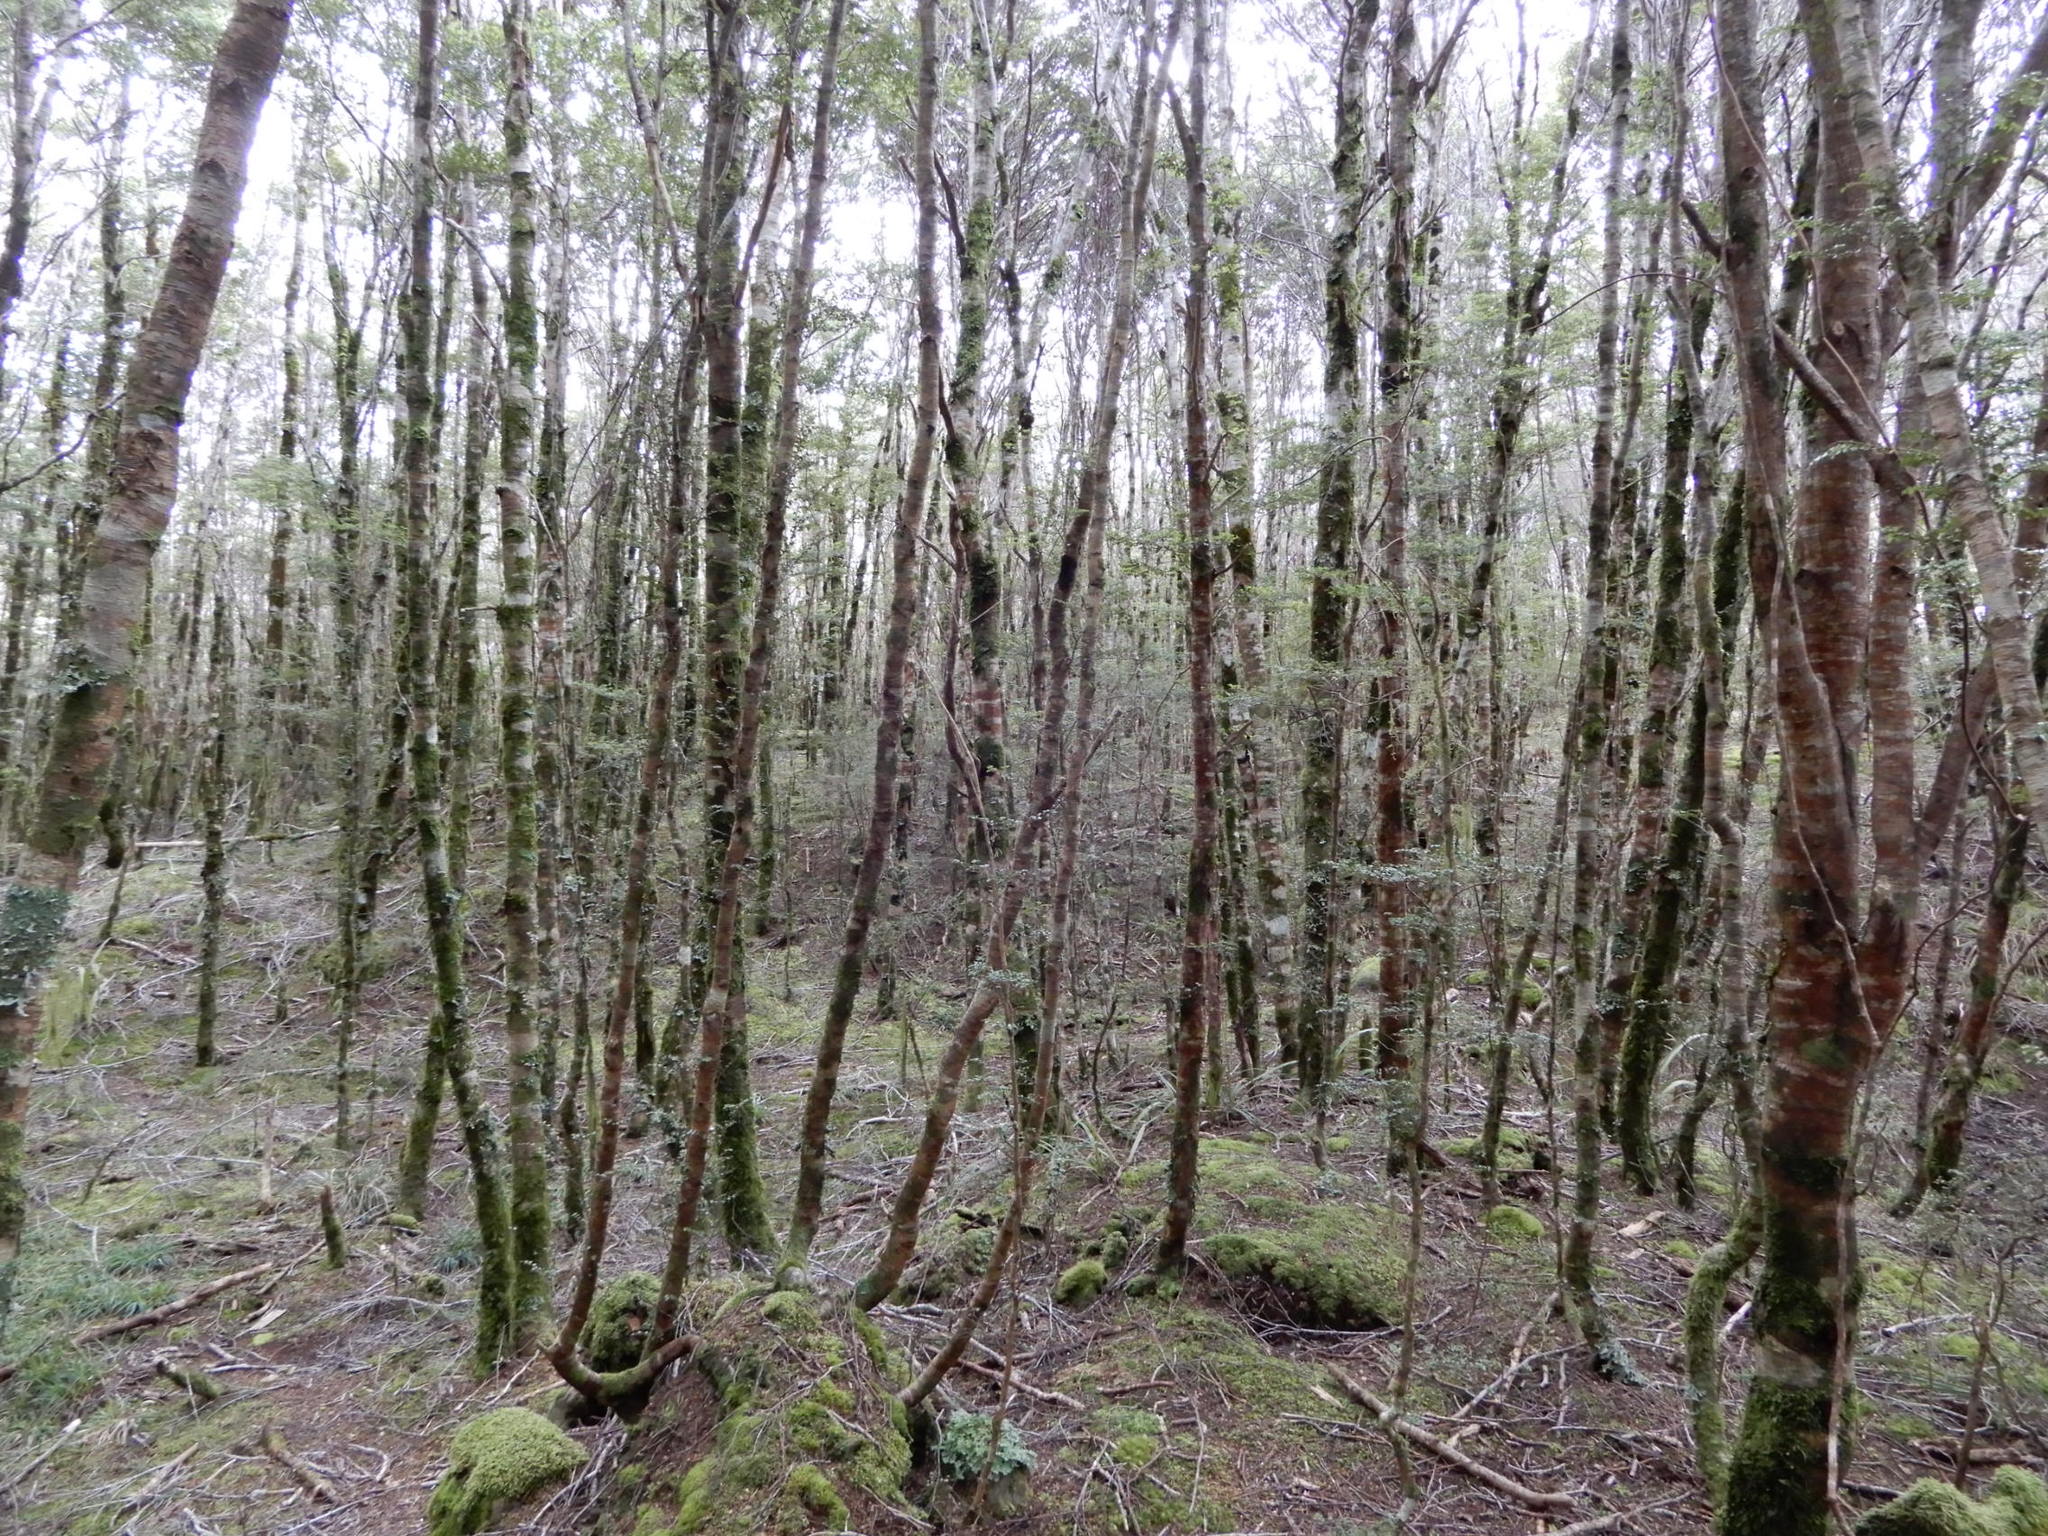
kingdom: Plantae
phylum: Tracheophyta
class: Magnoliopsida
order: Fagales
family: Nothofagaceae
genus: Nothofagus
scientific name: Nothofagus menziesii
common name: Silver beech
